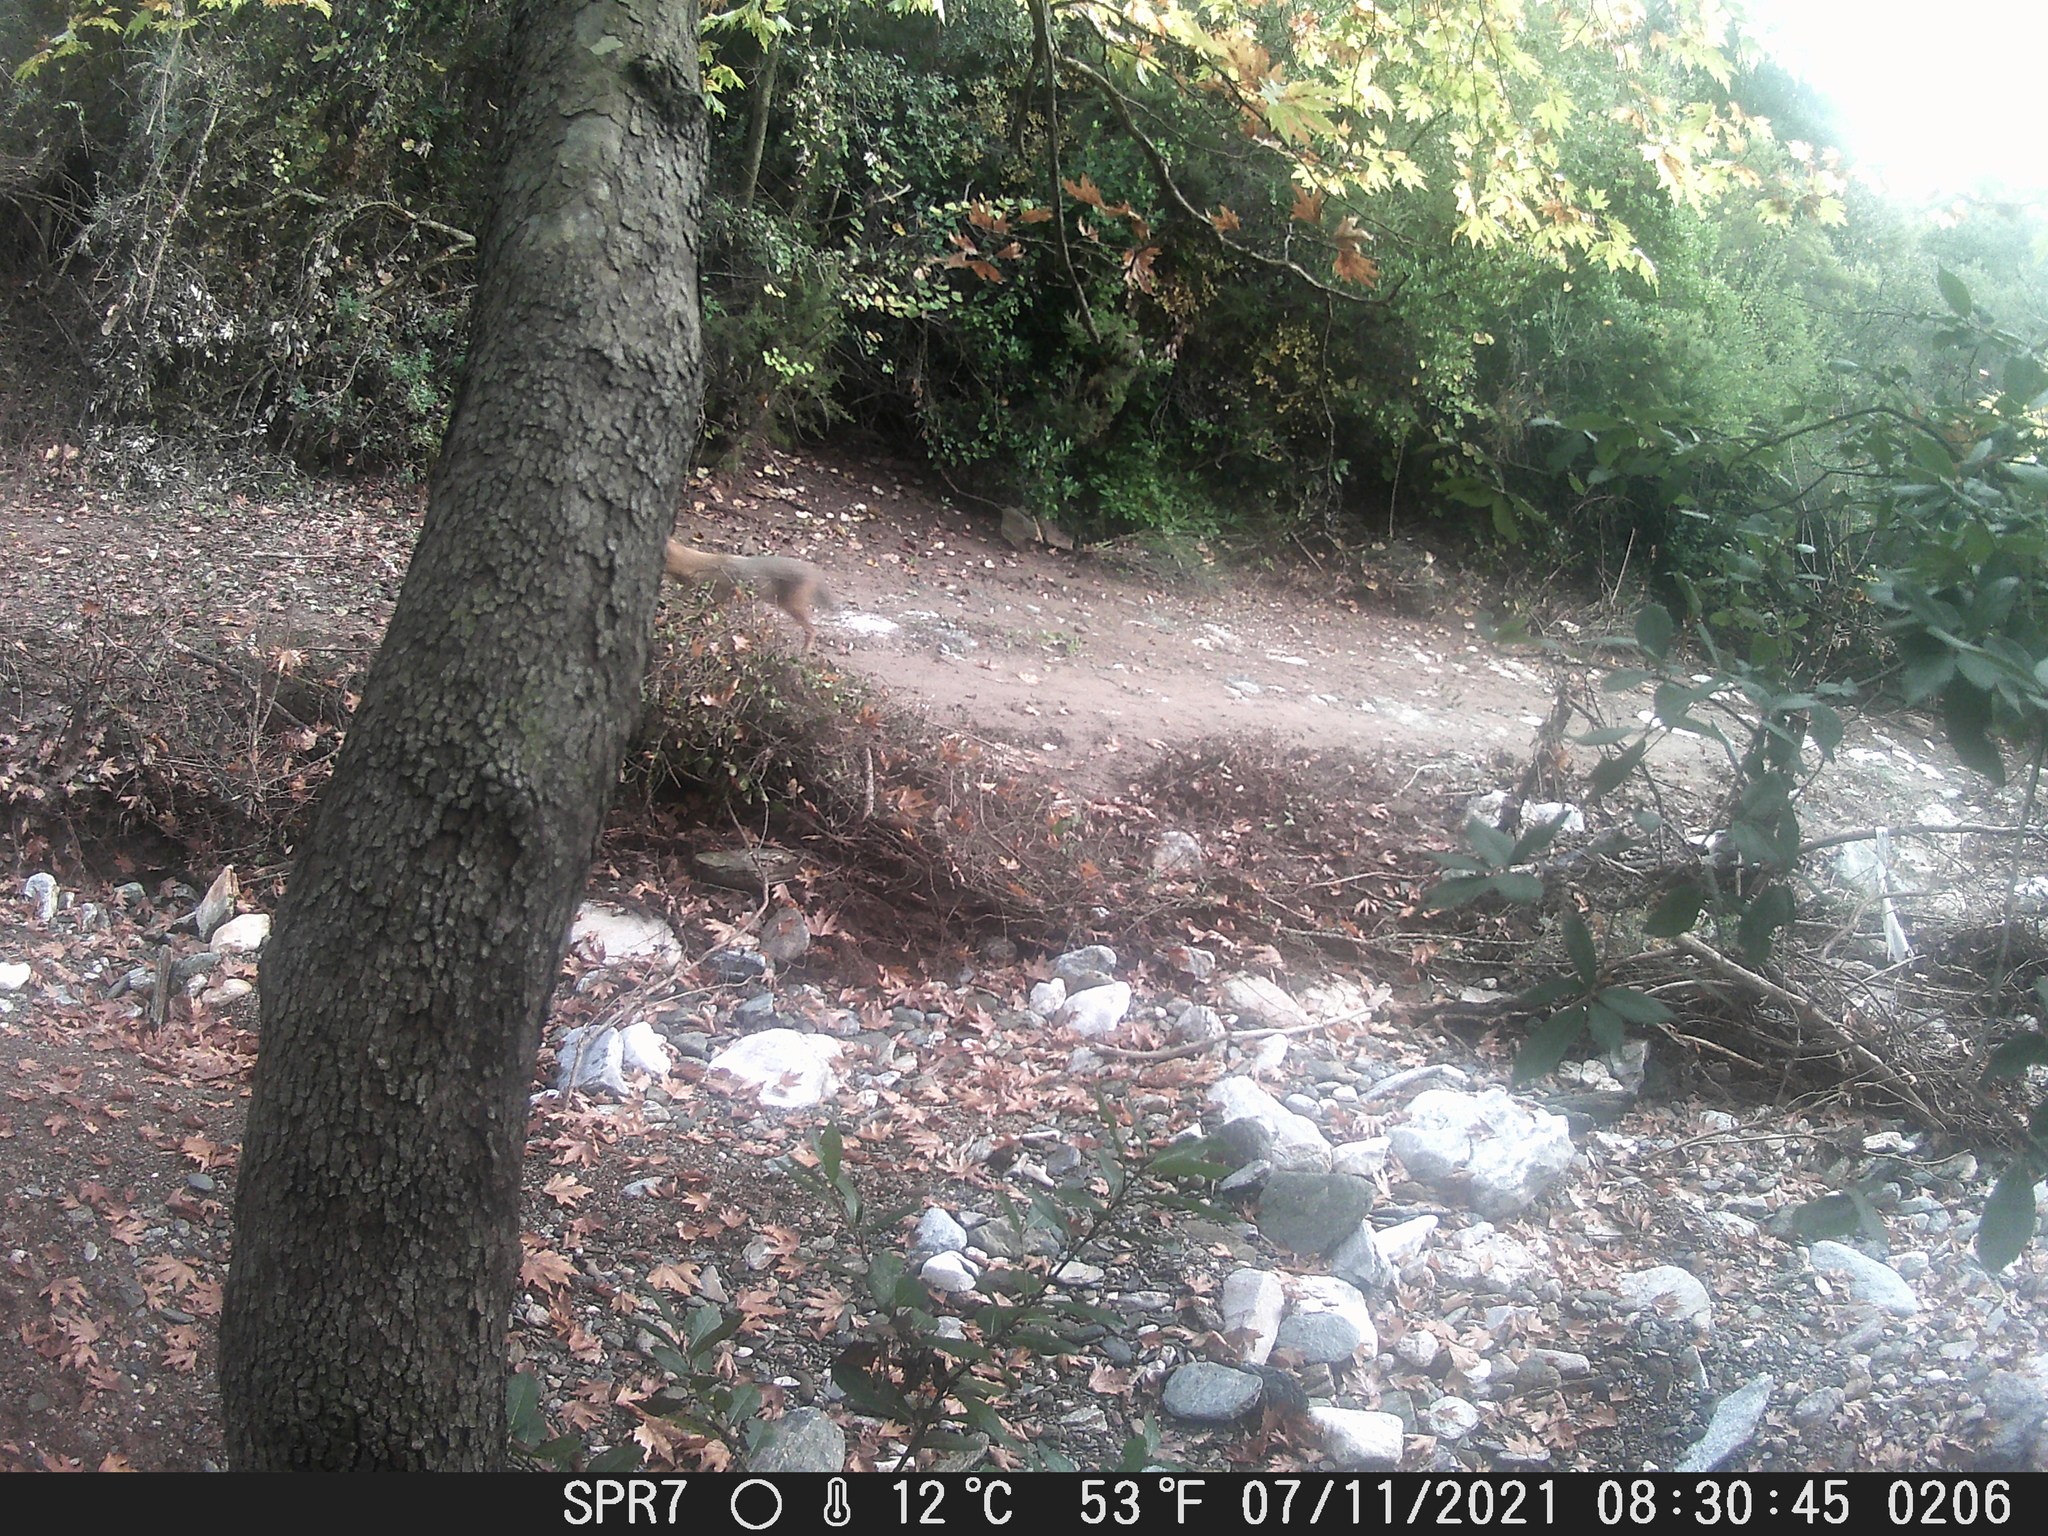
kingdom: Animalia
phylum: Chordata
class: Mammalia
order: Carnivora
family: Canidae
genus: Canis
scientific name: Canis aureus
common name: Golden jackal
